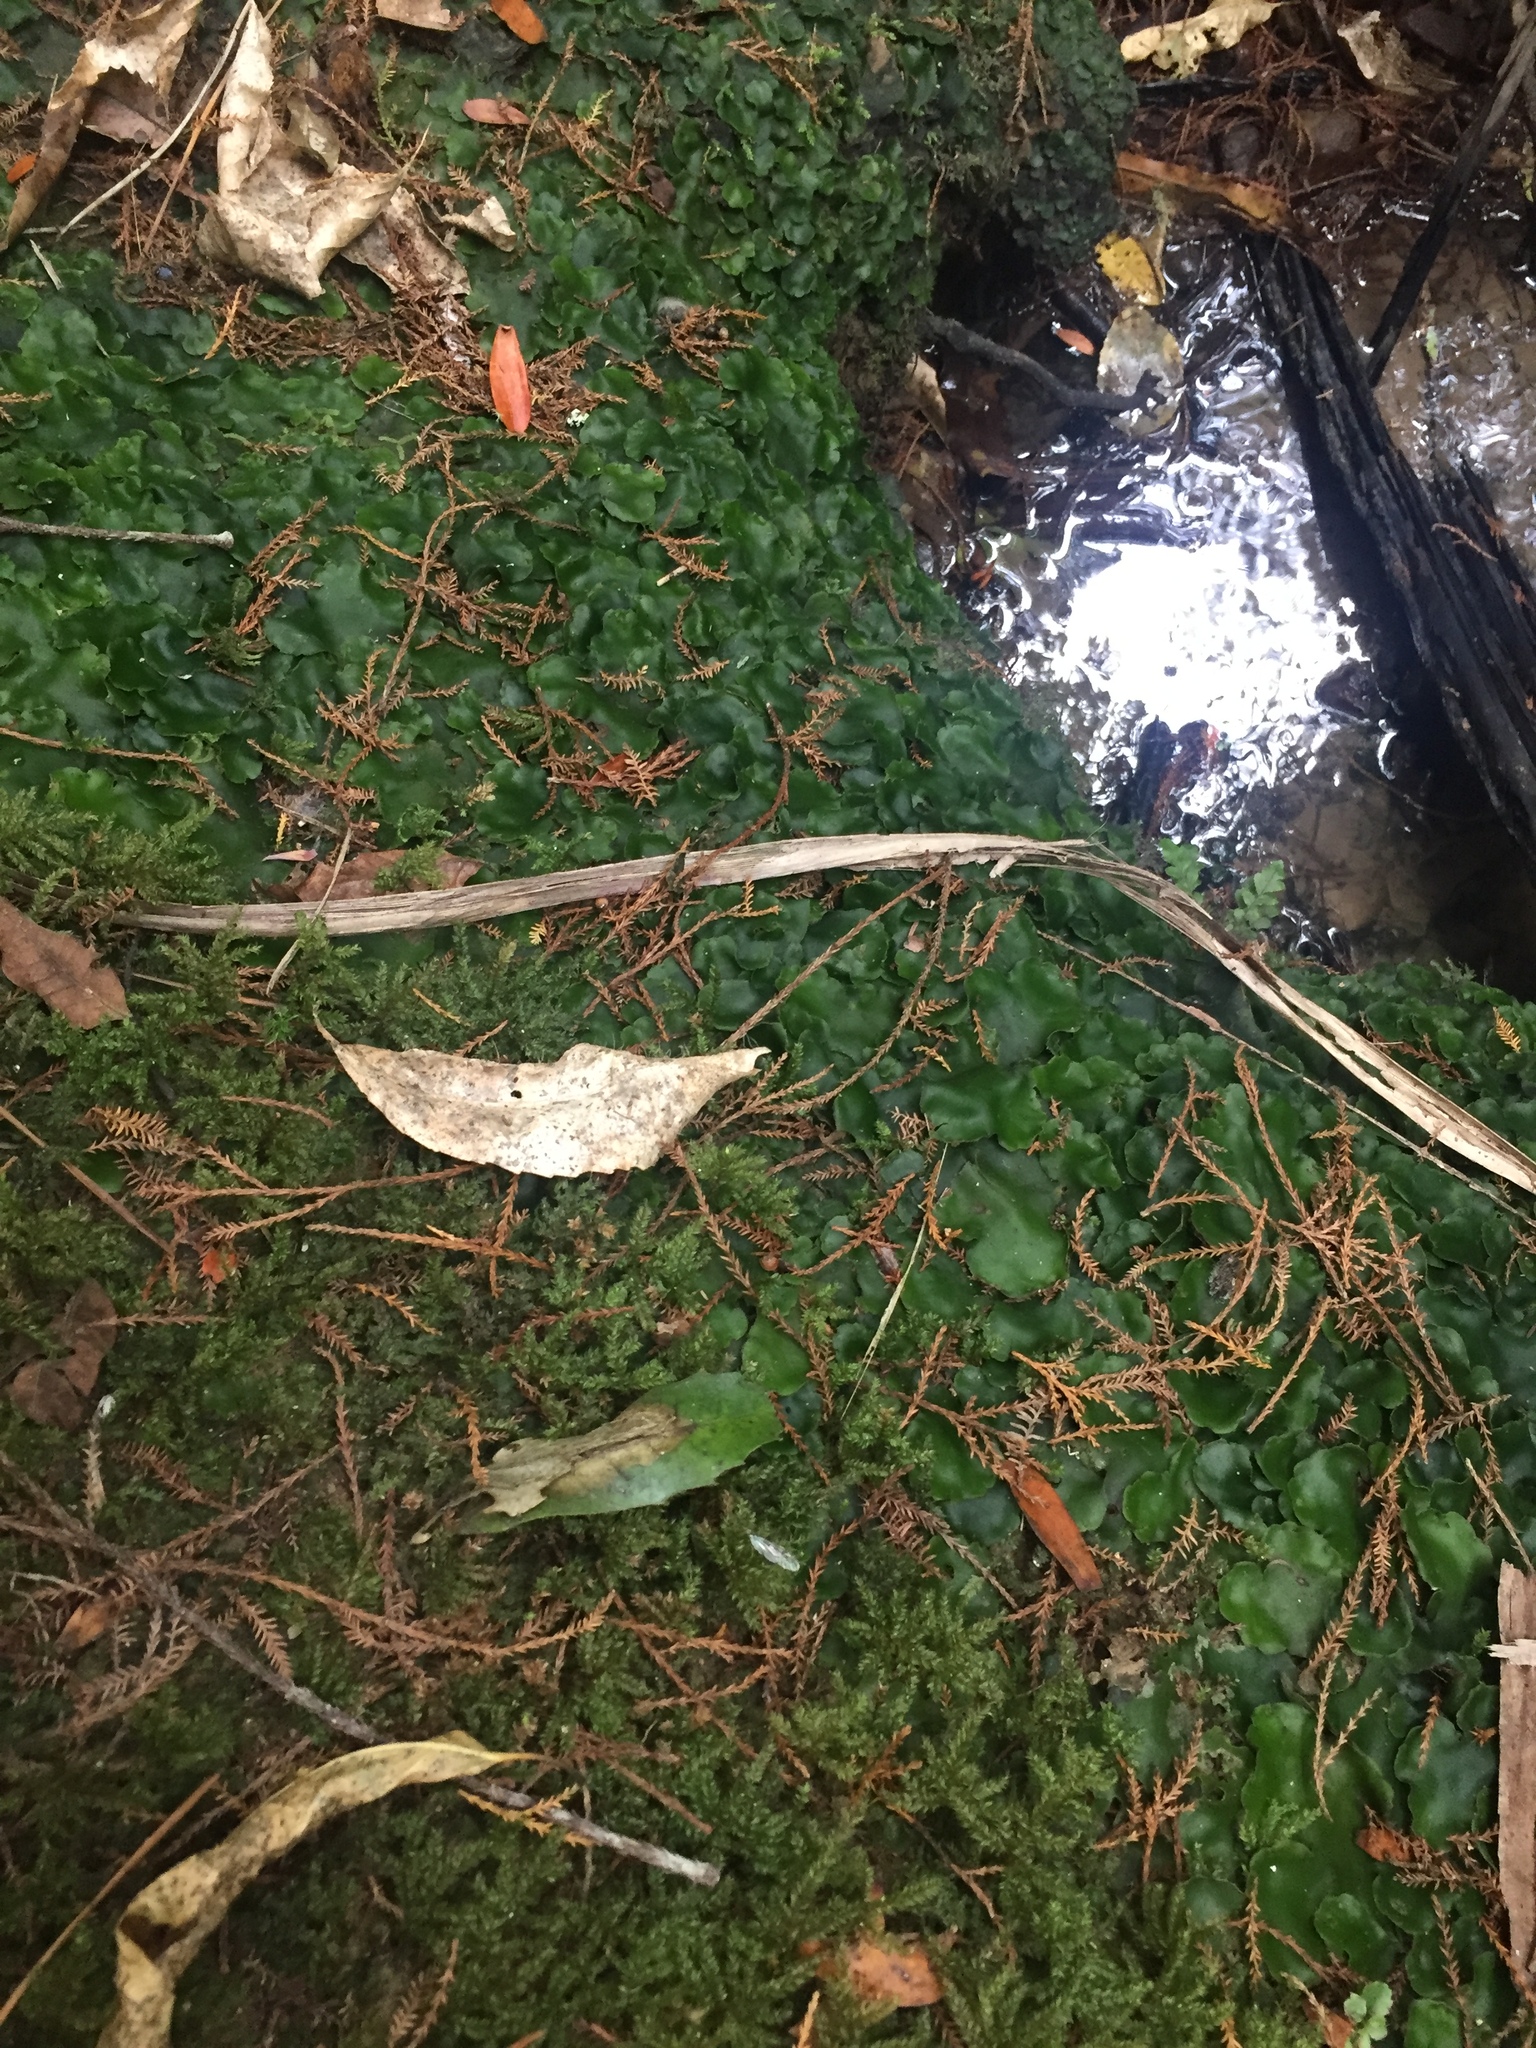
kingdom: Plantae
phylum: Marchantiophyta
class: Marchantiopsida
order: Marchantiales
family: Monocleaceae
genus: Monoclea
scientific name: Monoclea forsteri
